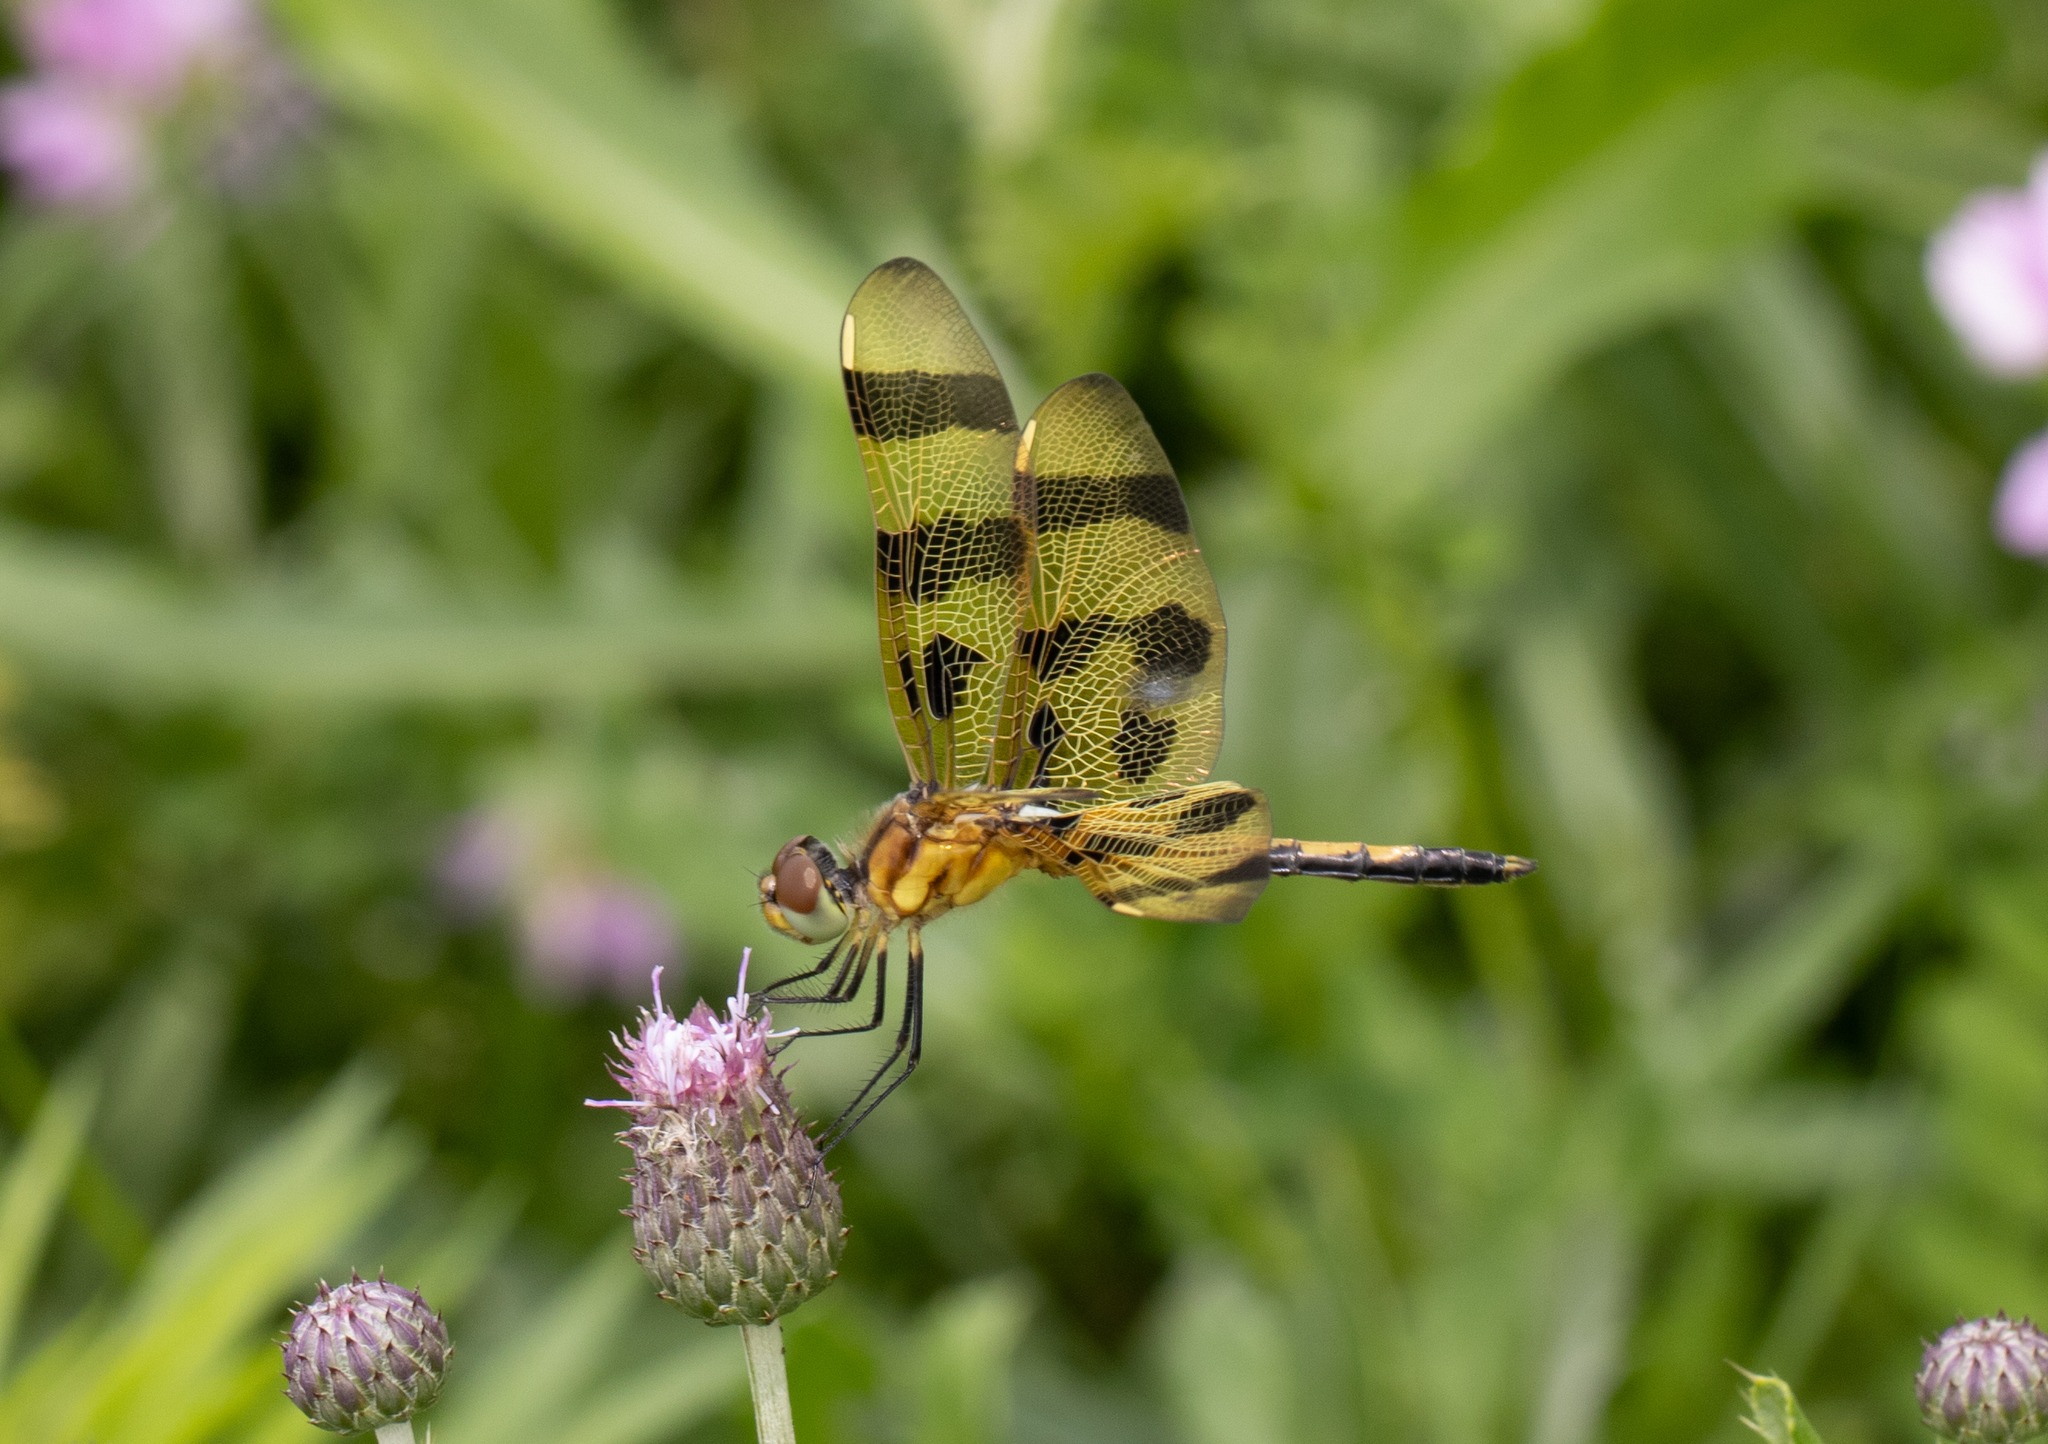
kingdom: Animalia
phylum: Arthropoda
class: Insecta
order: Odonata
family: Libellulidae
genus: Celithemis
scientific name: Celithemis eponina
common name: Halloween pennant
